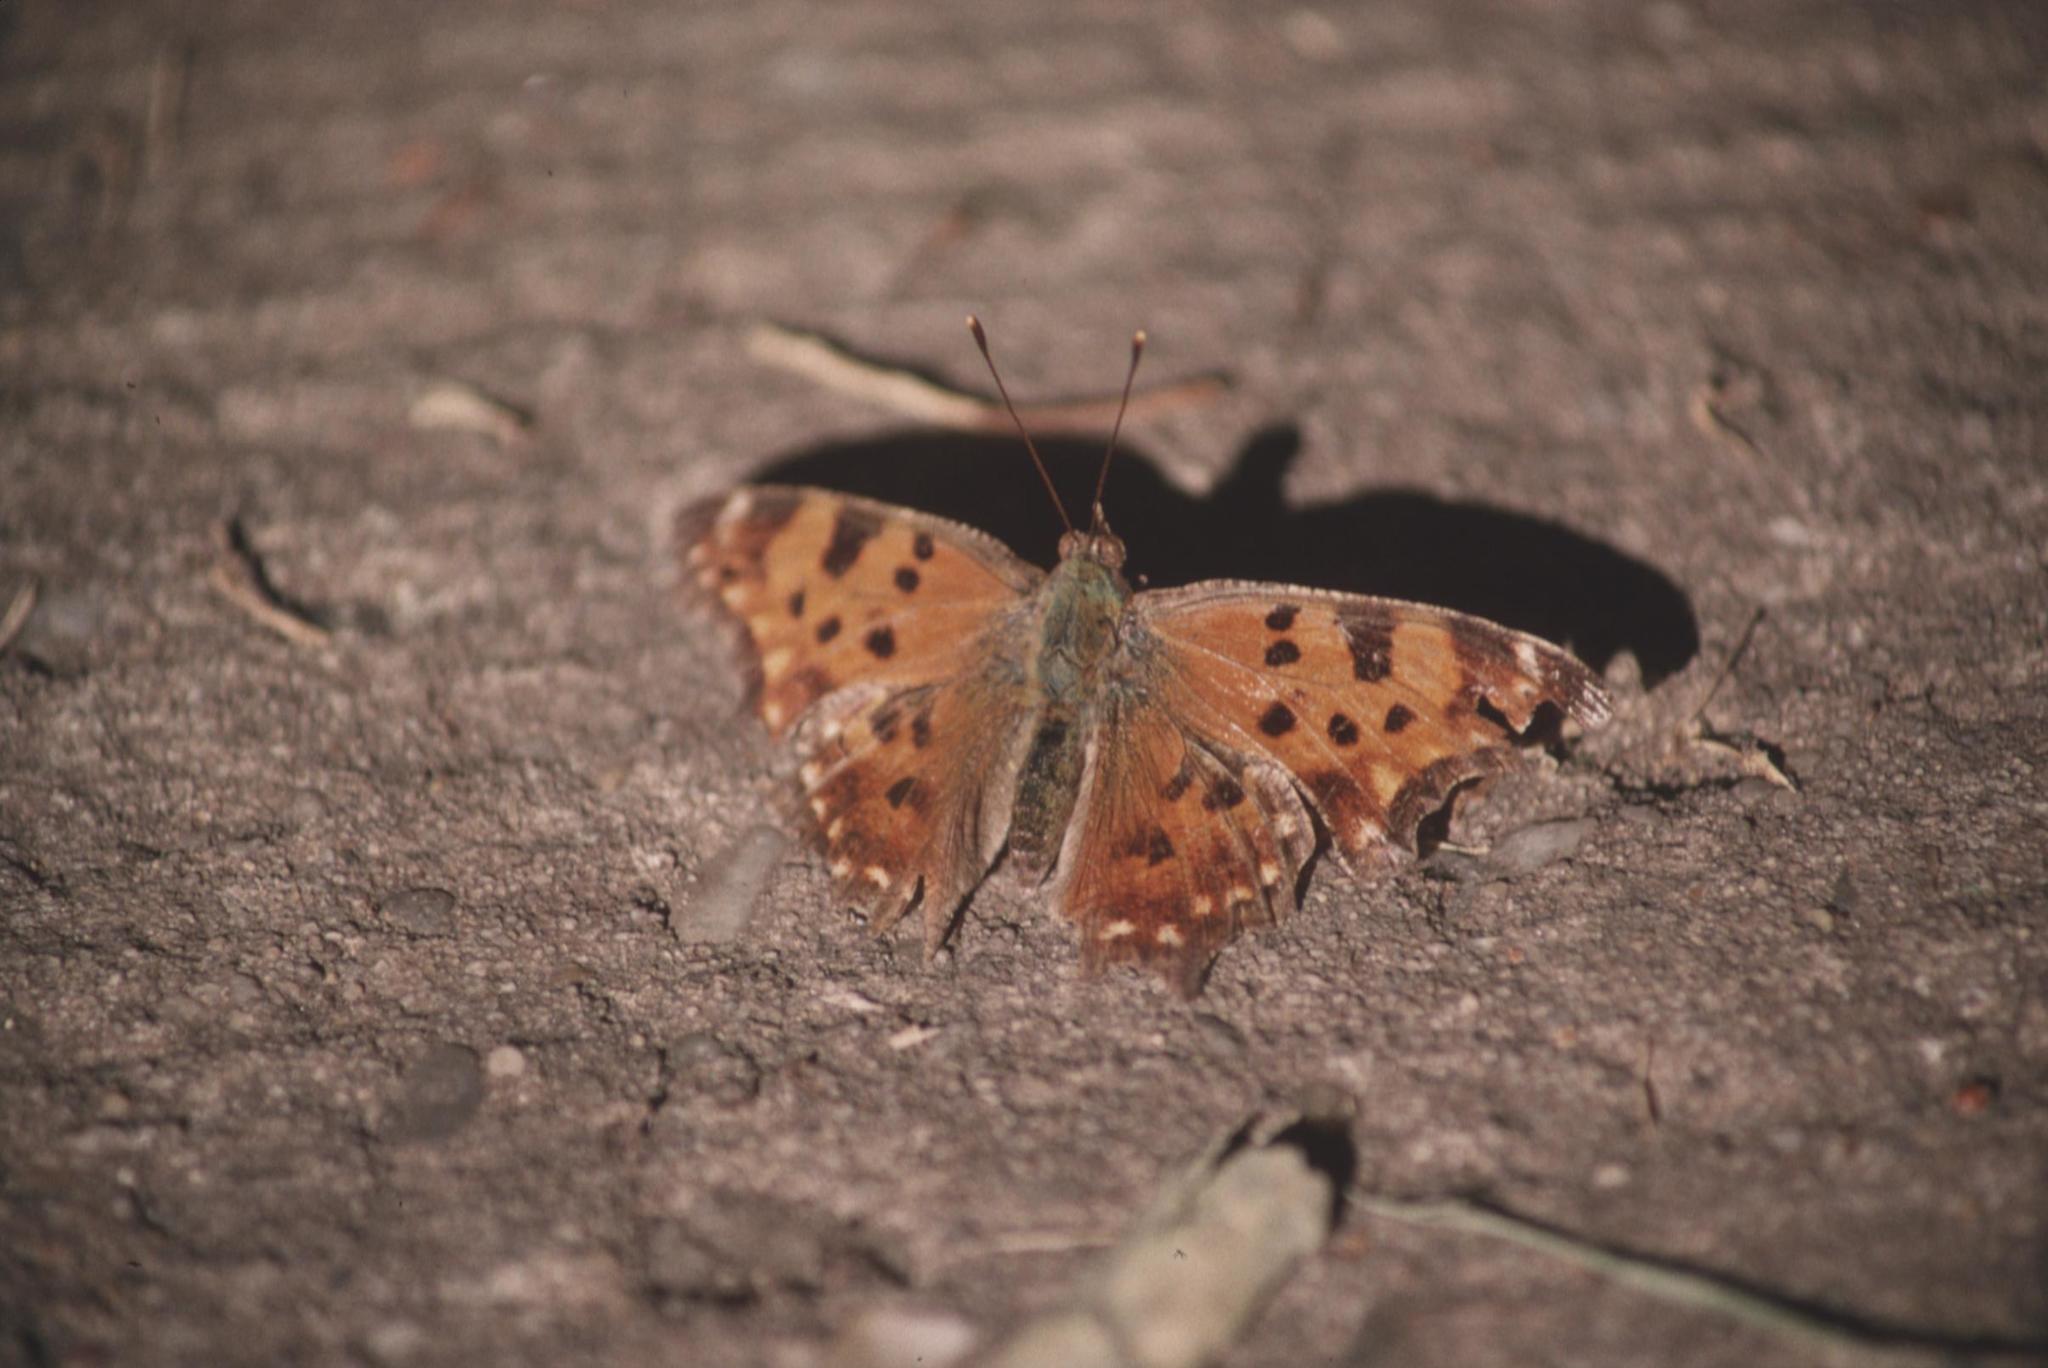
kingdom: Animalia
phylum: Arthropoda
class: Insecta
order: Lepidoptera
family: Nymphalidae
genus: Polygonia
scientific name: Polygonia comma
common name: Eastern comma
